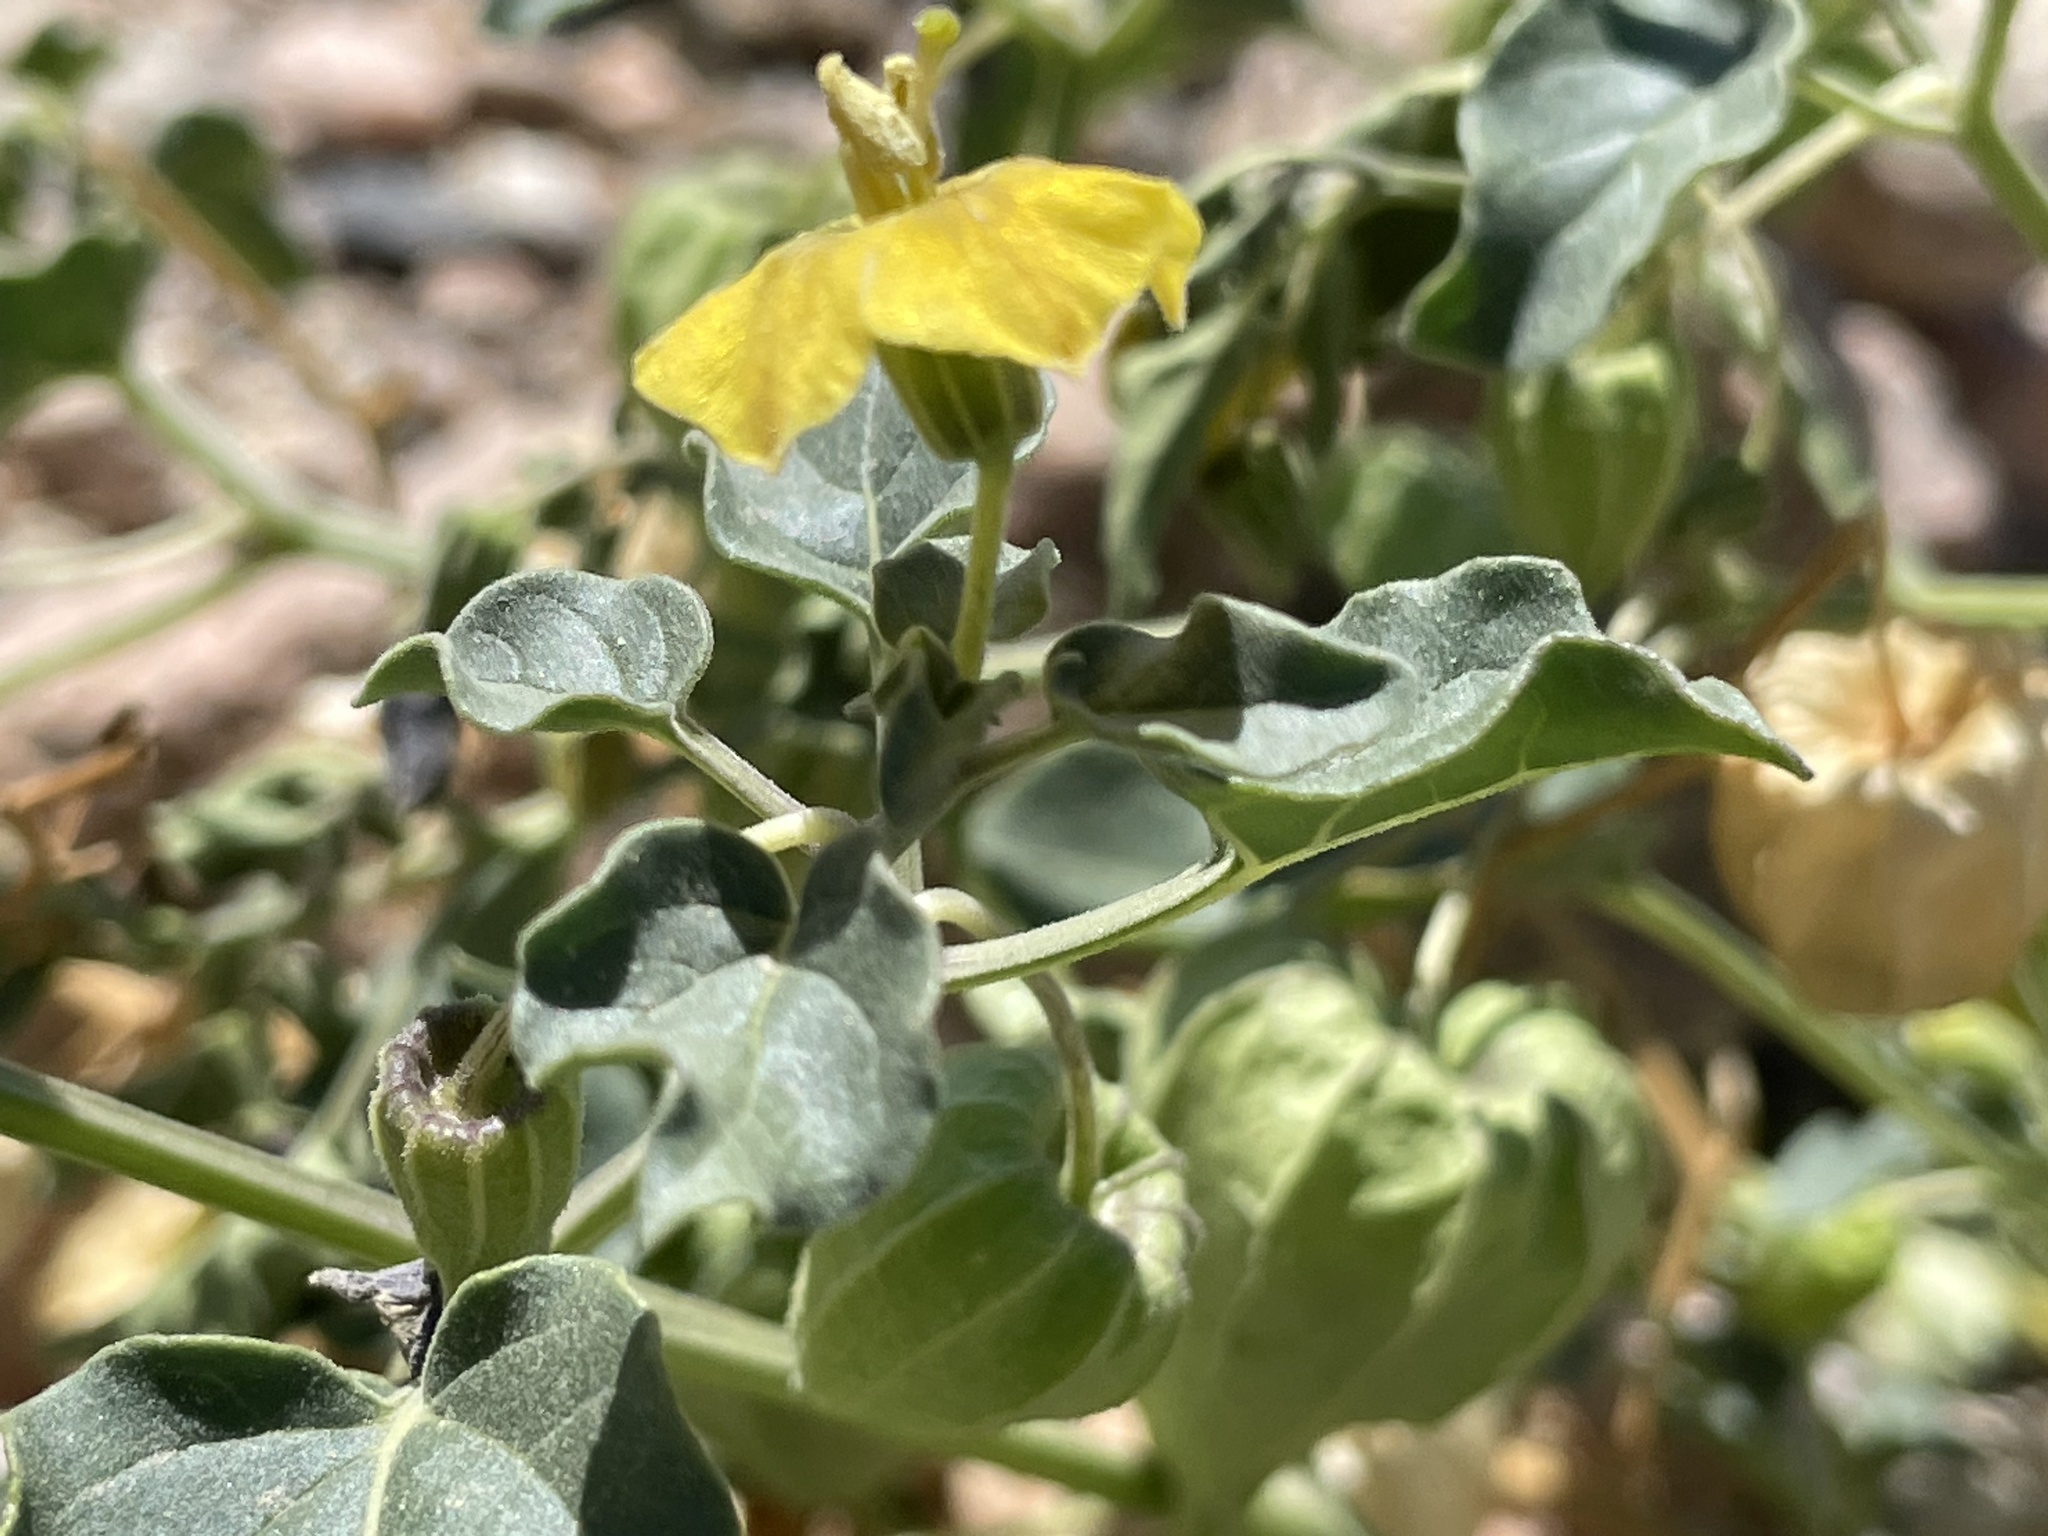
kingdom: Plantae
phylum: Tracheophyta
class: Magnoliopsida
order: Solanales
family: Solanaceae
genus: Physalis
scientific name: Physalis crassifolia
